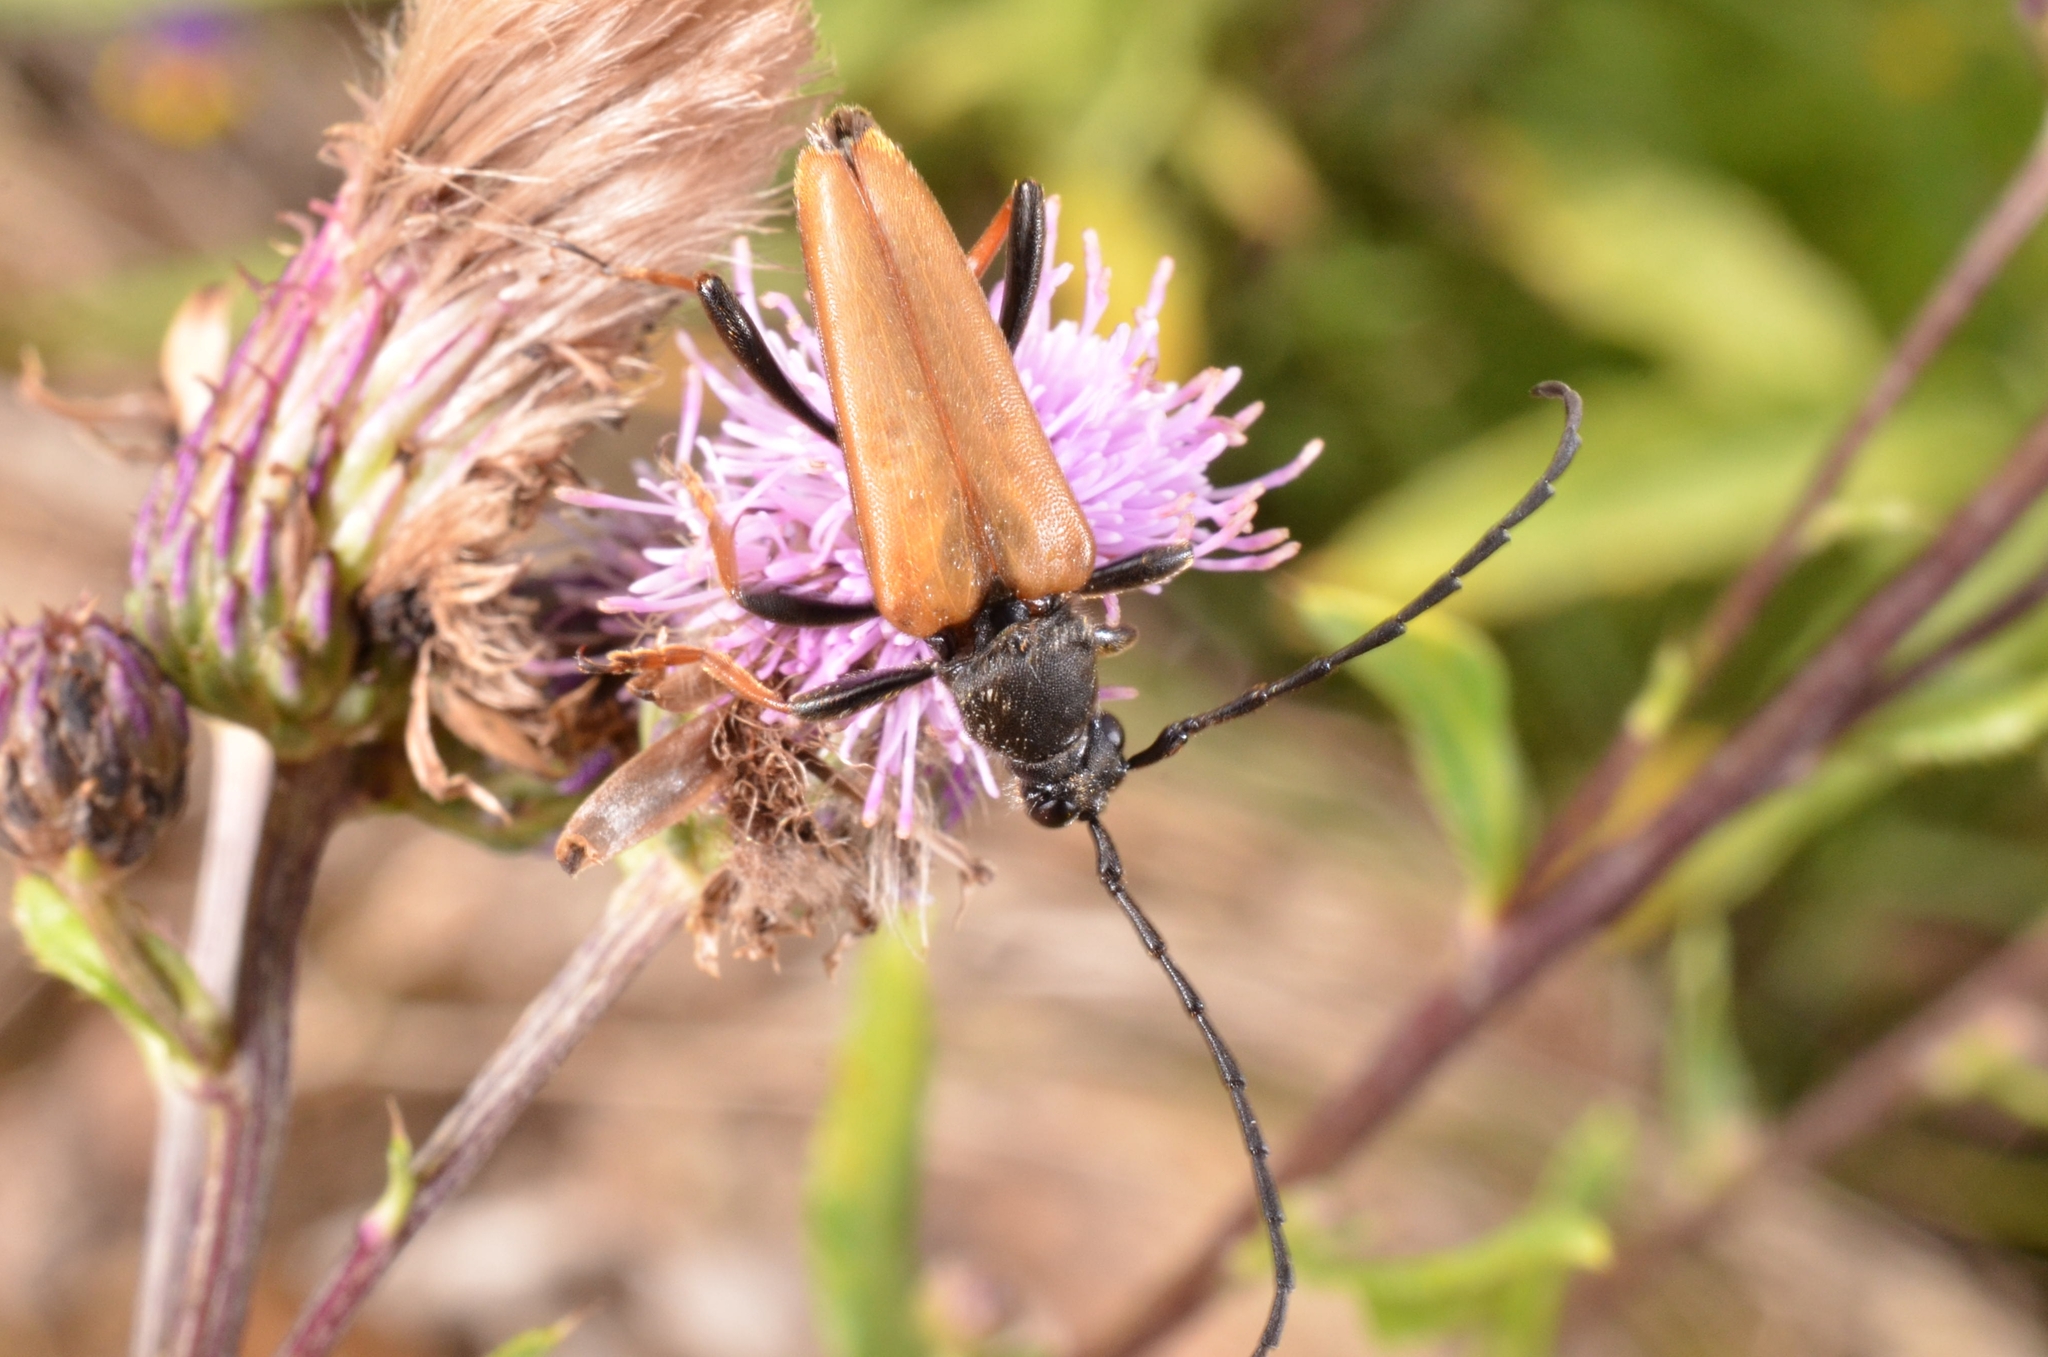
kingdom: Animalia
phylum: Arthropoda
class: Insecta
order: Coleoptera
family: Cerambycidae
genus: Stictoleptura
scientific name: Stictoleptura rubra
